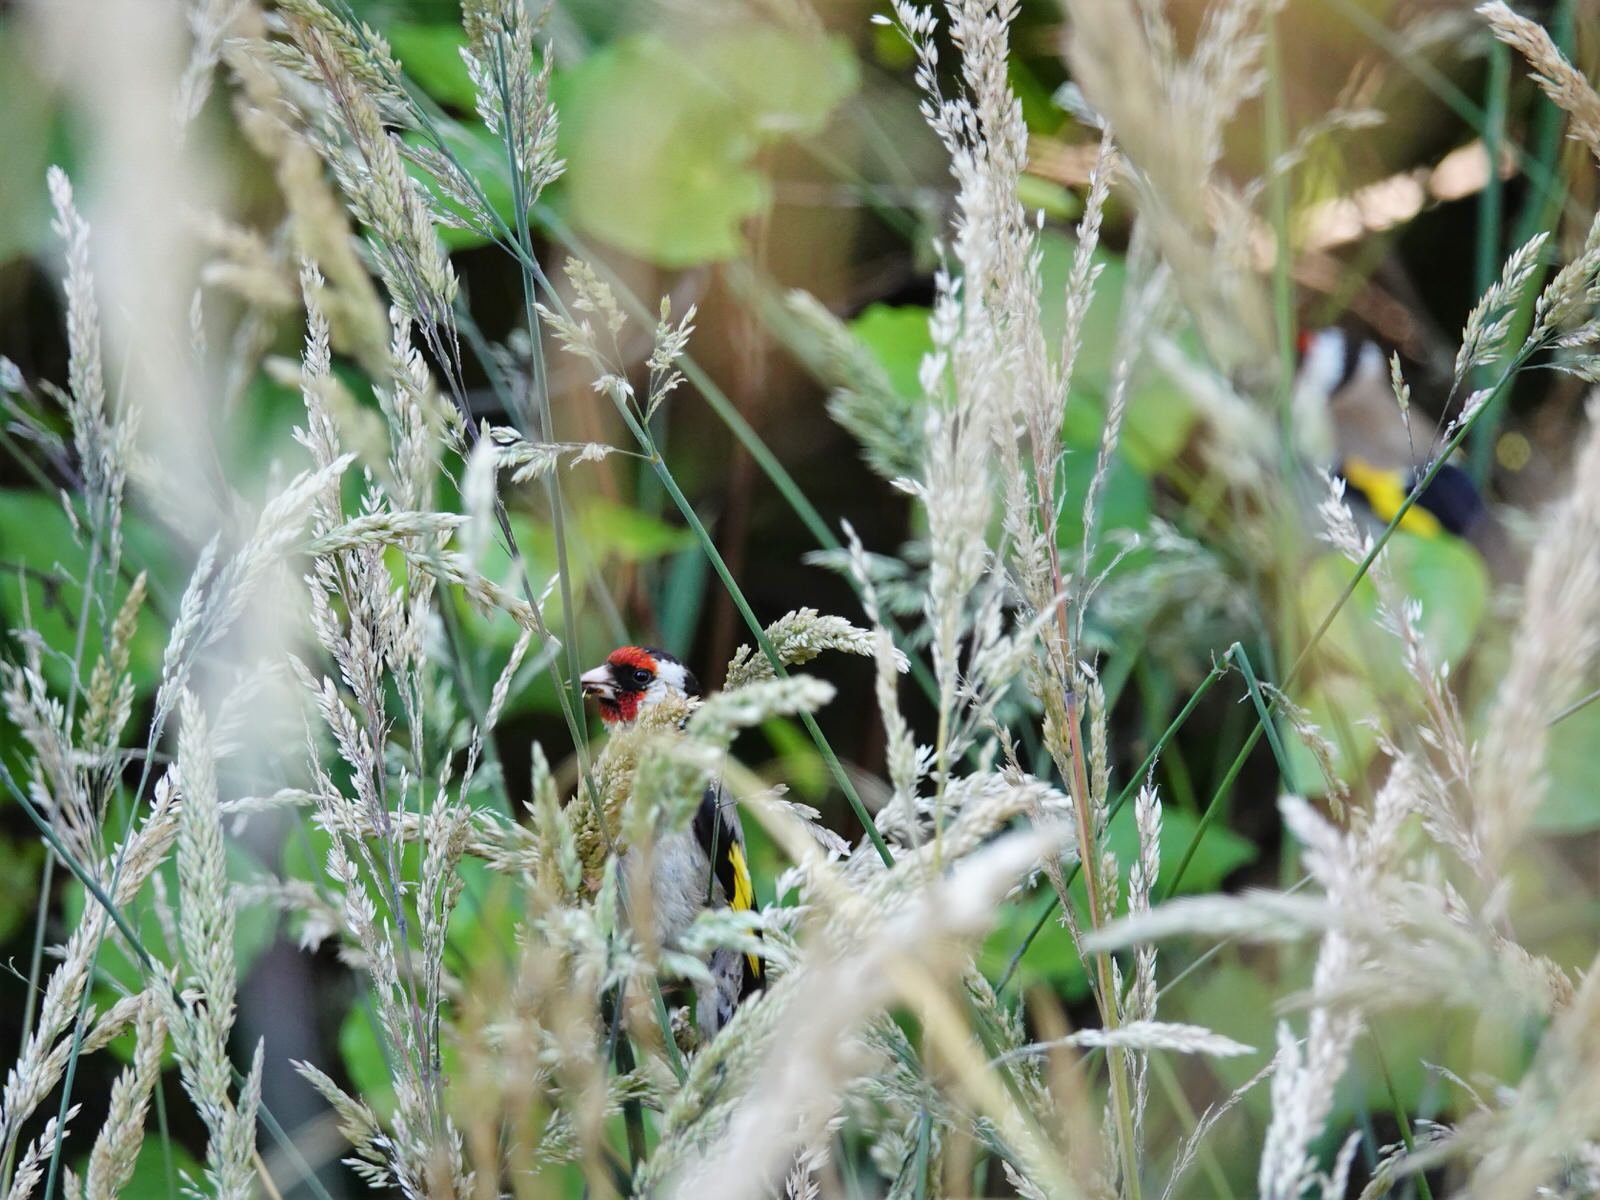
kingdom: Animalia
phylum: Chordata
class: Aves
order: Passeriformes
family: Fringillidae
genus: Carduelis
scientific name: Carduelis carduelis
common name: European goldfinch
